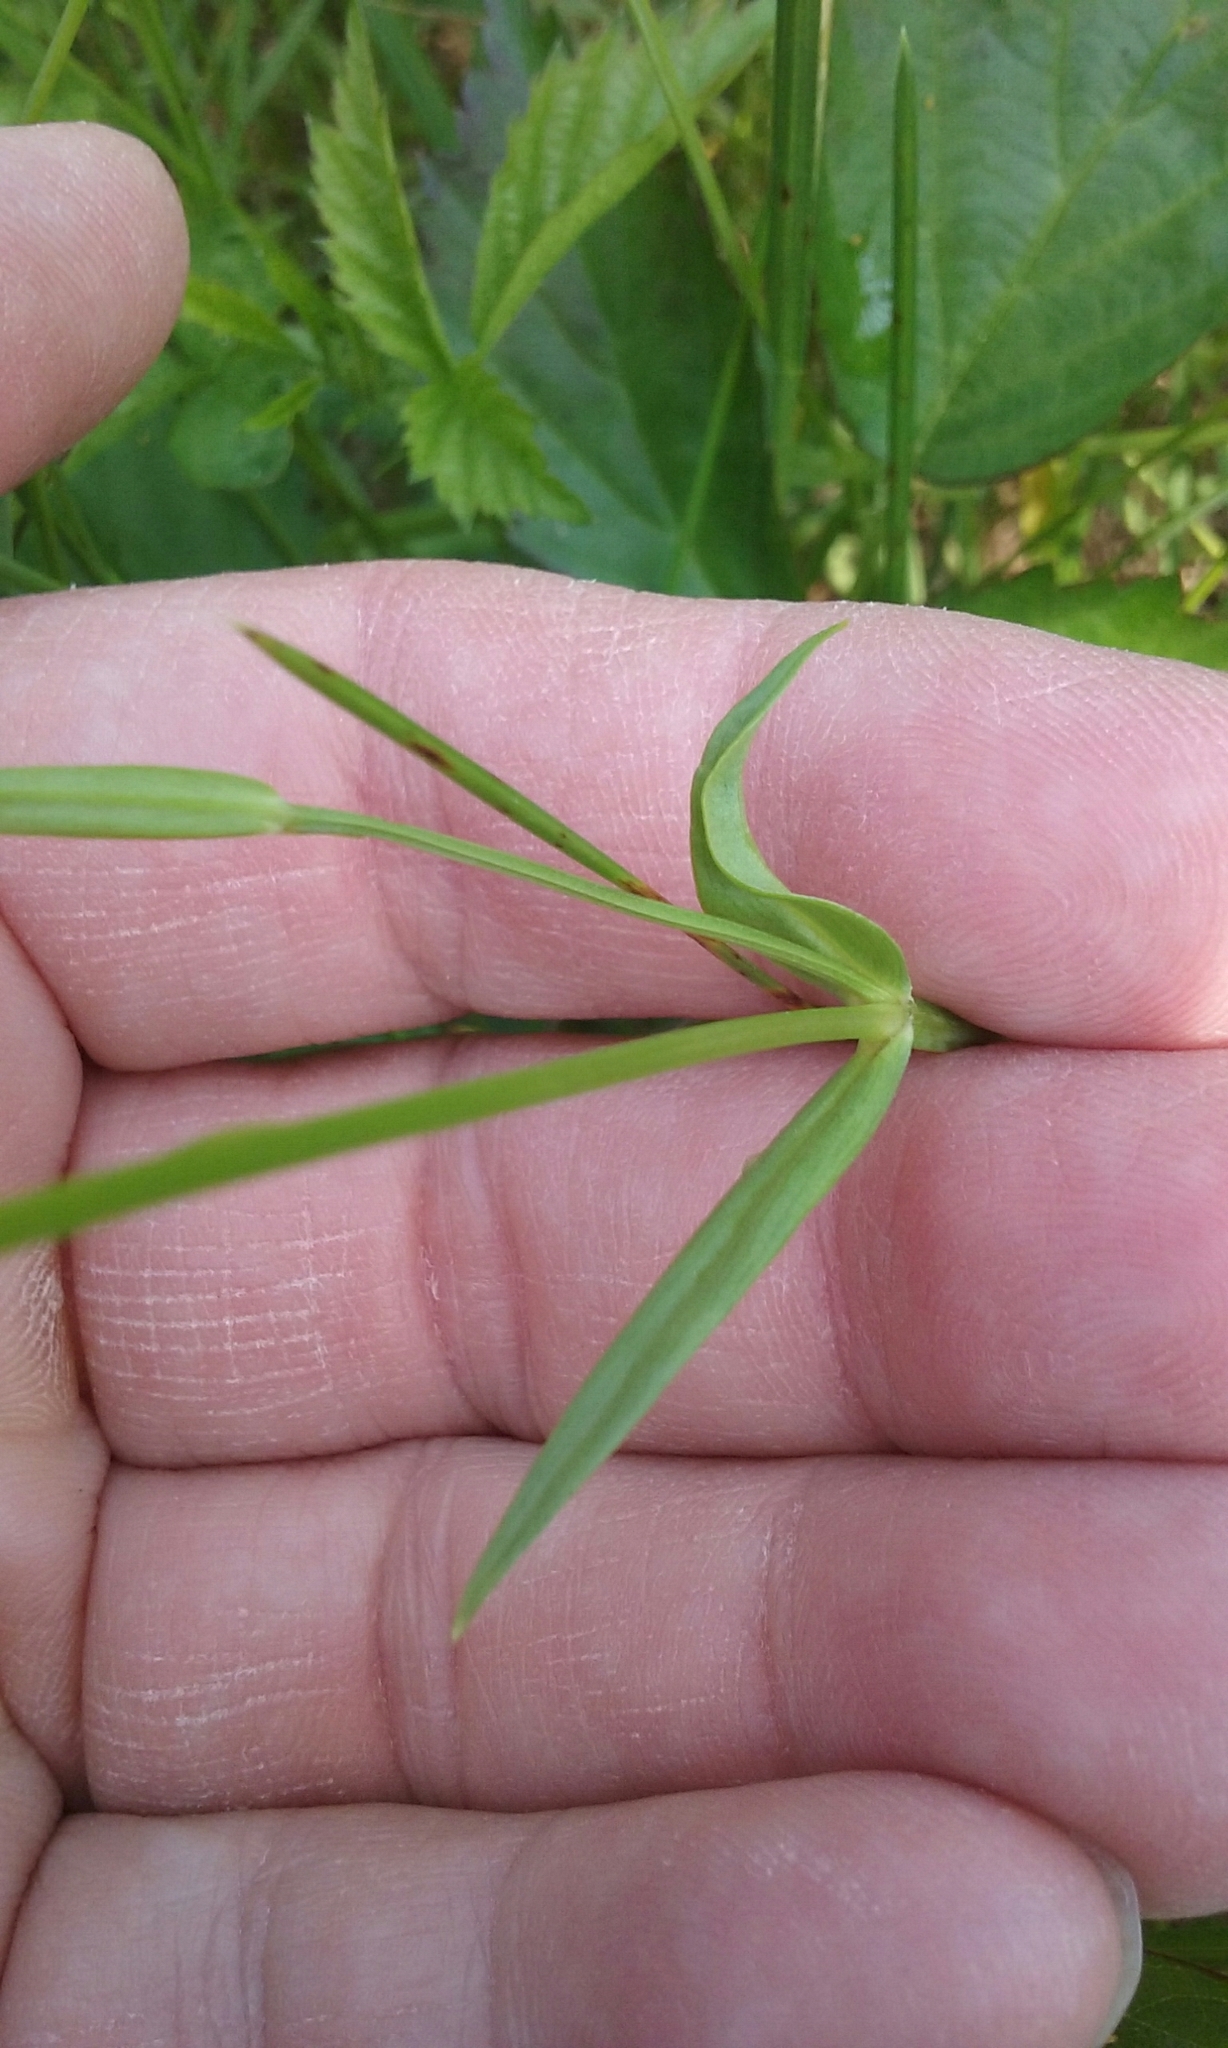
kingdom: Plantae
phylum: Tracheophyta
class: Magnoliopsida
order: Caryophyllales
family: Caryophyllaceae
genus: Stellaria
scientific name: Stellaria graminea
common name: Grass-like starwort
